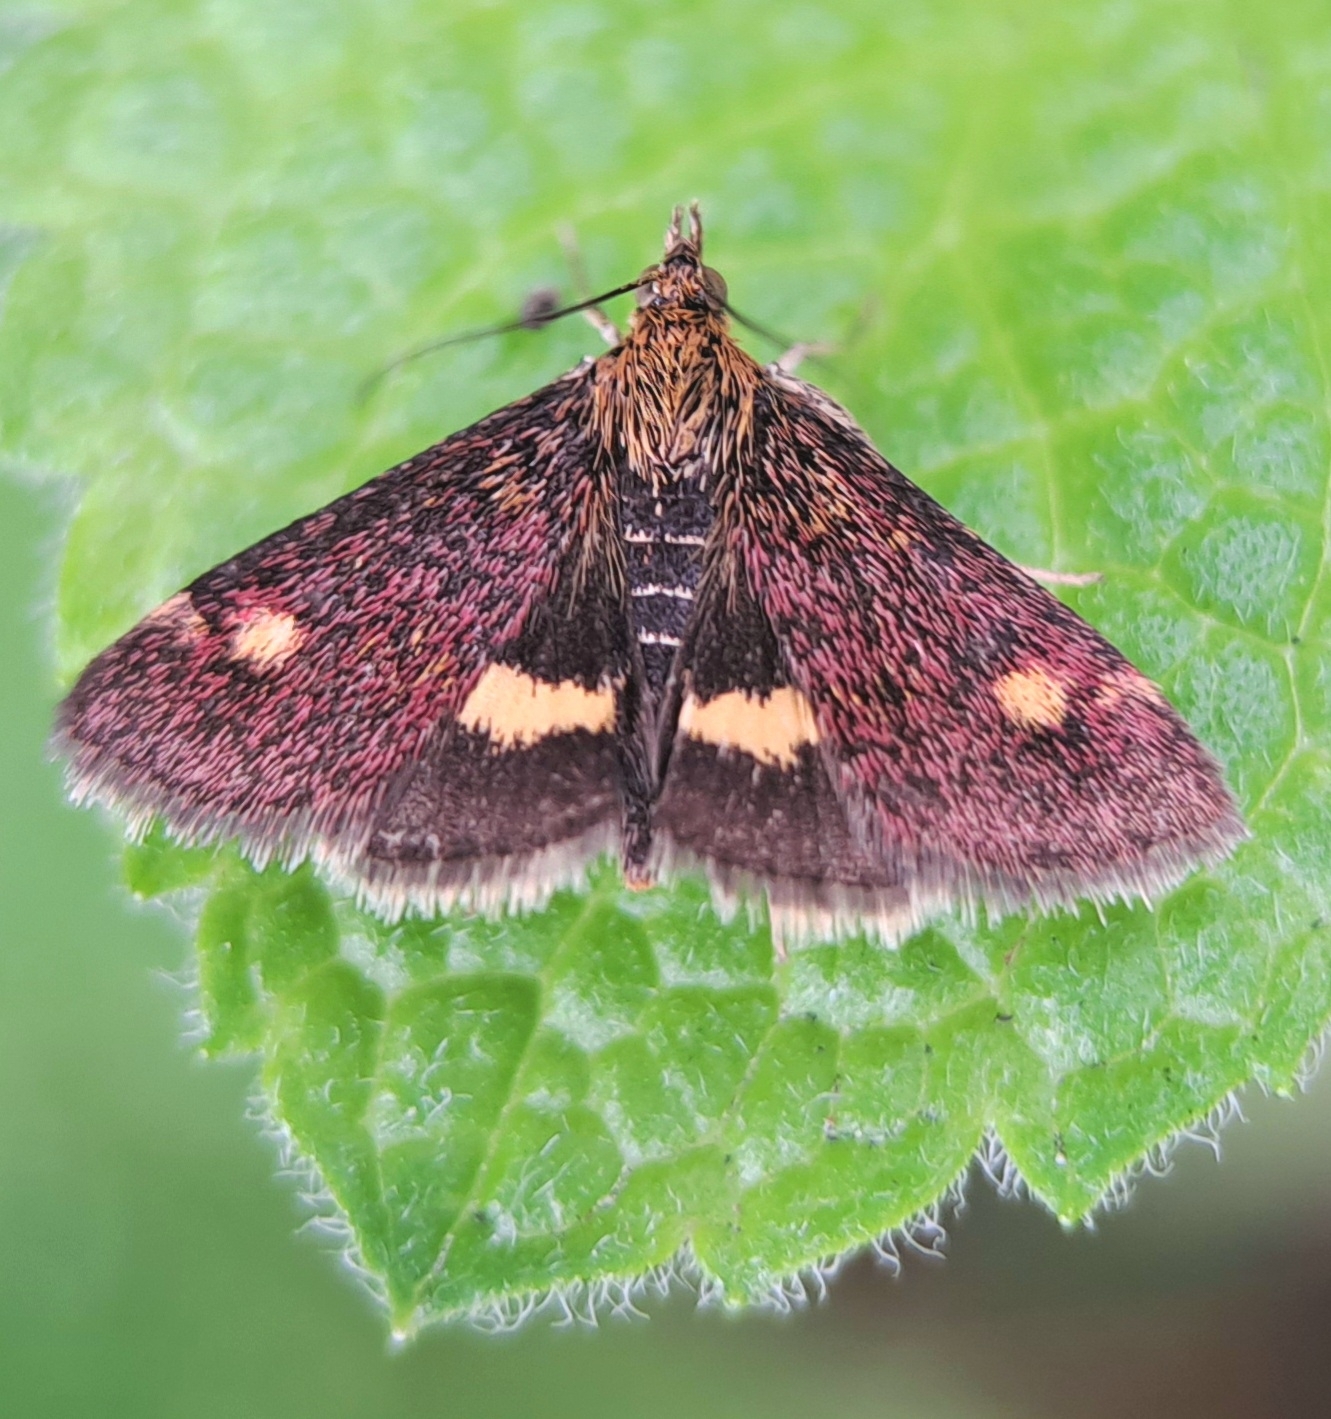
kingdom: Animalia
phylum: Arthropoda
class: Insecta
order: Lepidoptera
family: Crambidae
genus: Pyrausta
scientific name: Pyrausta aurata
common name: Small purple & gold
